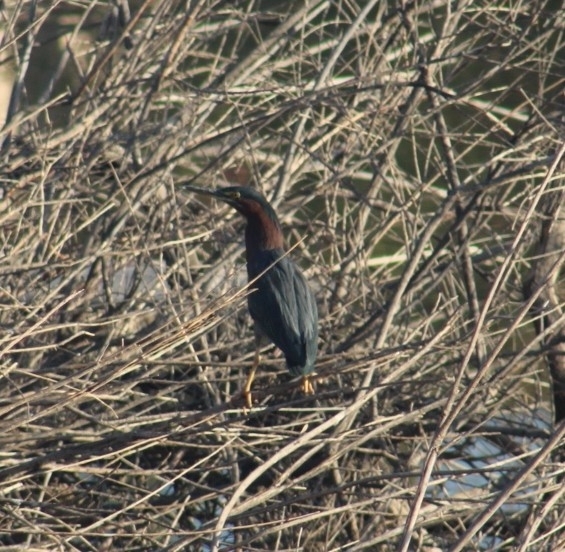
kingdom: Animalia
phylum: Chordata
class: Aves
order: Pelecaniformes
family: Ardeidae
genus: Butorides
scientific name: Butorides virescens
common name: Green heron
